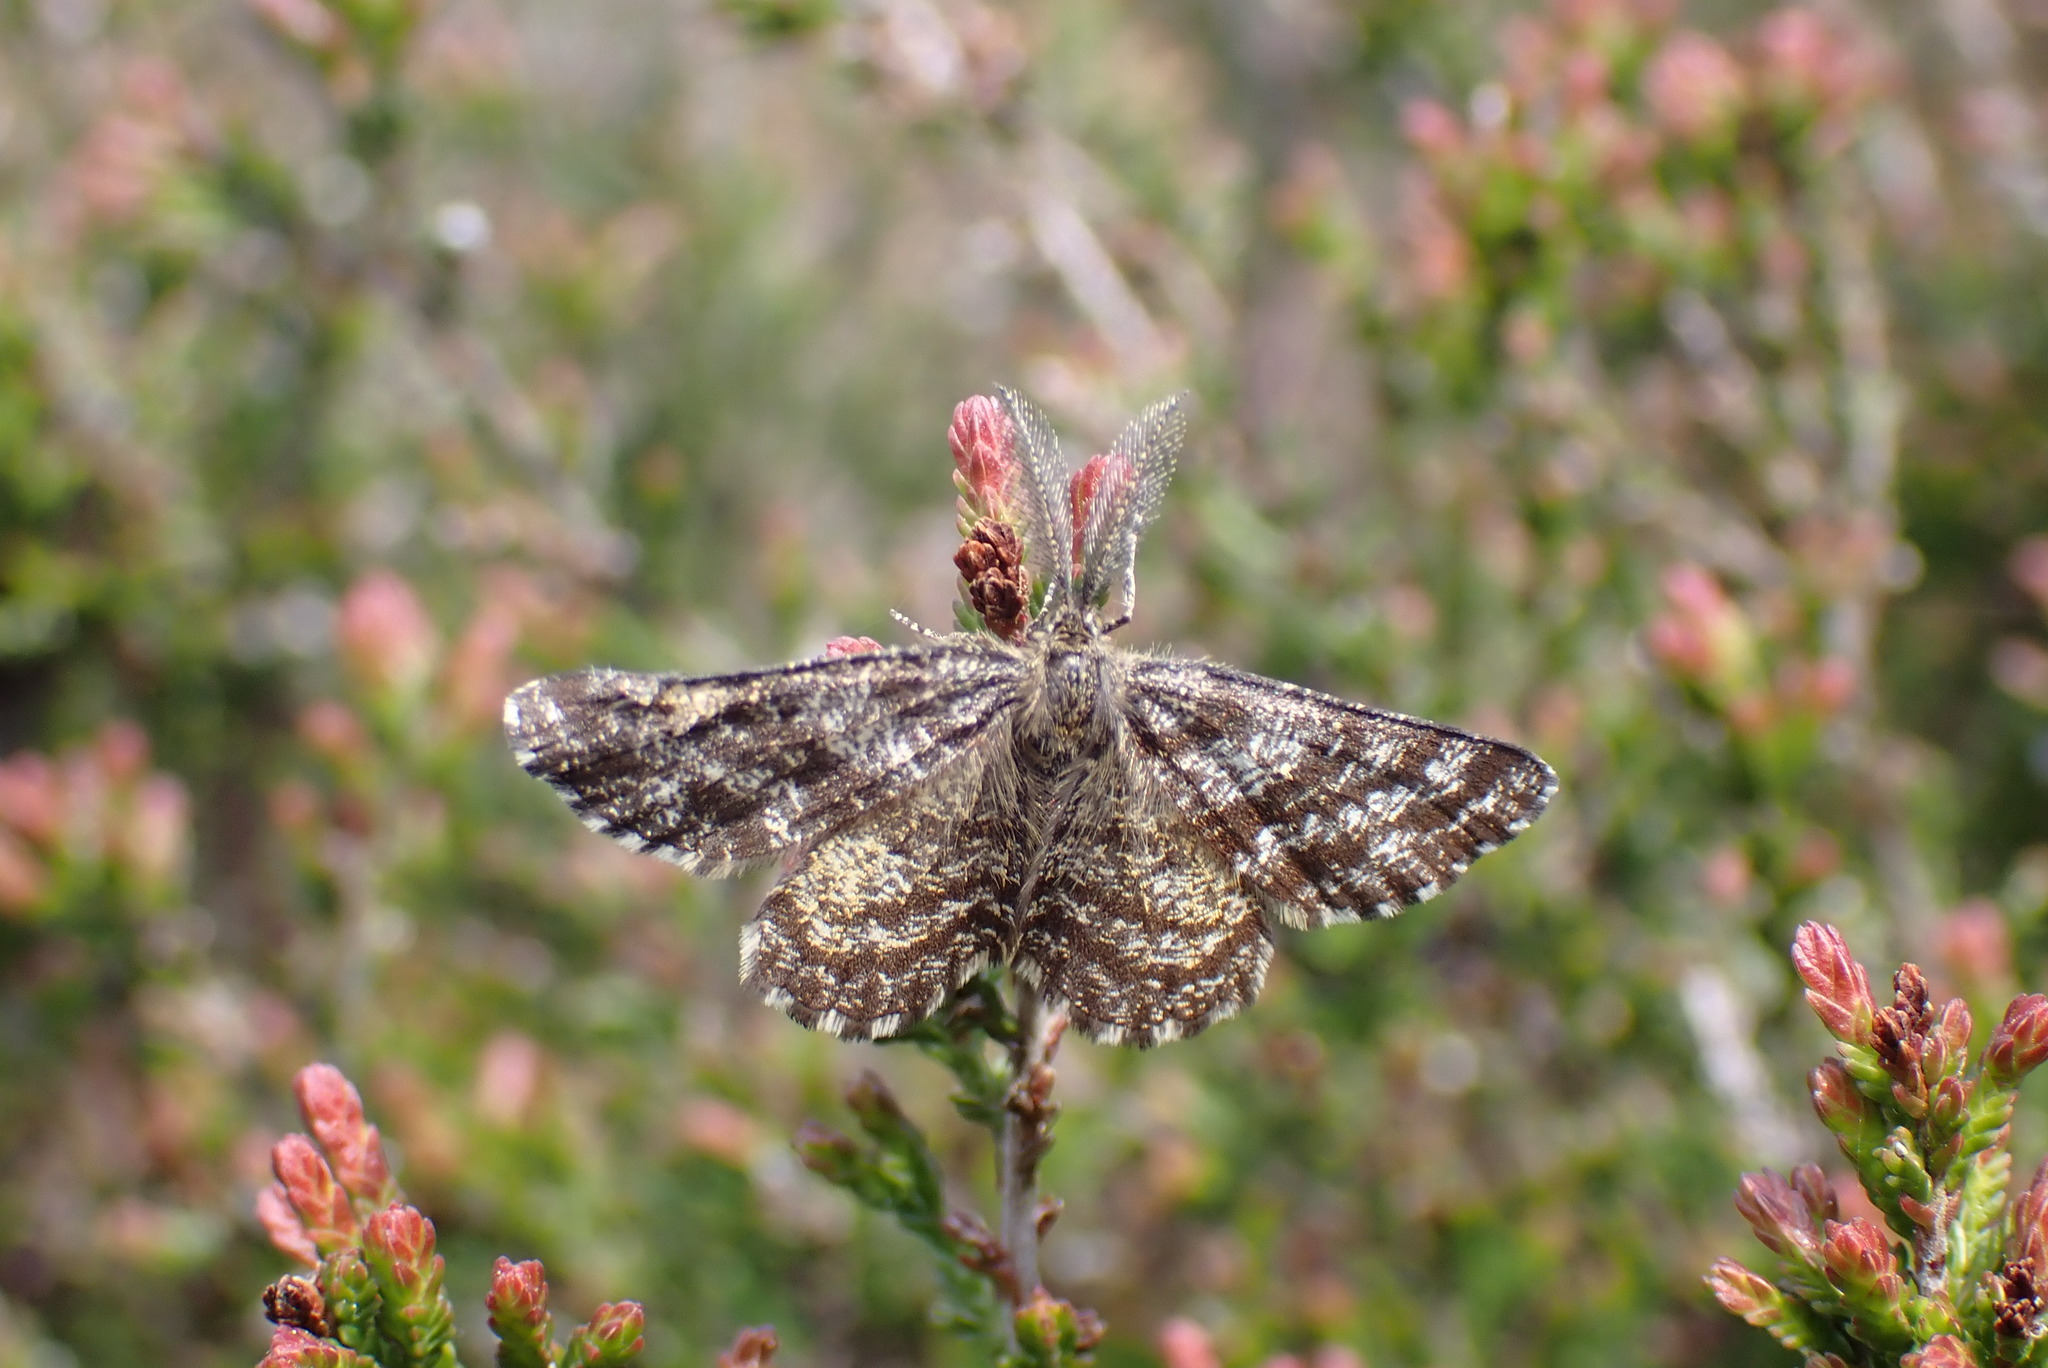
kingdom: Animalia
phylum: Arthropoda
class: Insecta
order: Lepidoptera
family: Geometridae
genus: Ematurga
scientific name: Ematurga atomaria
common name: Common heath
